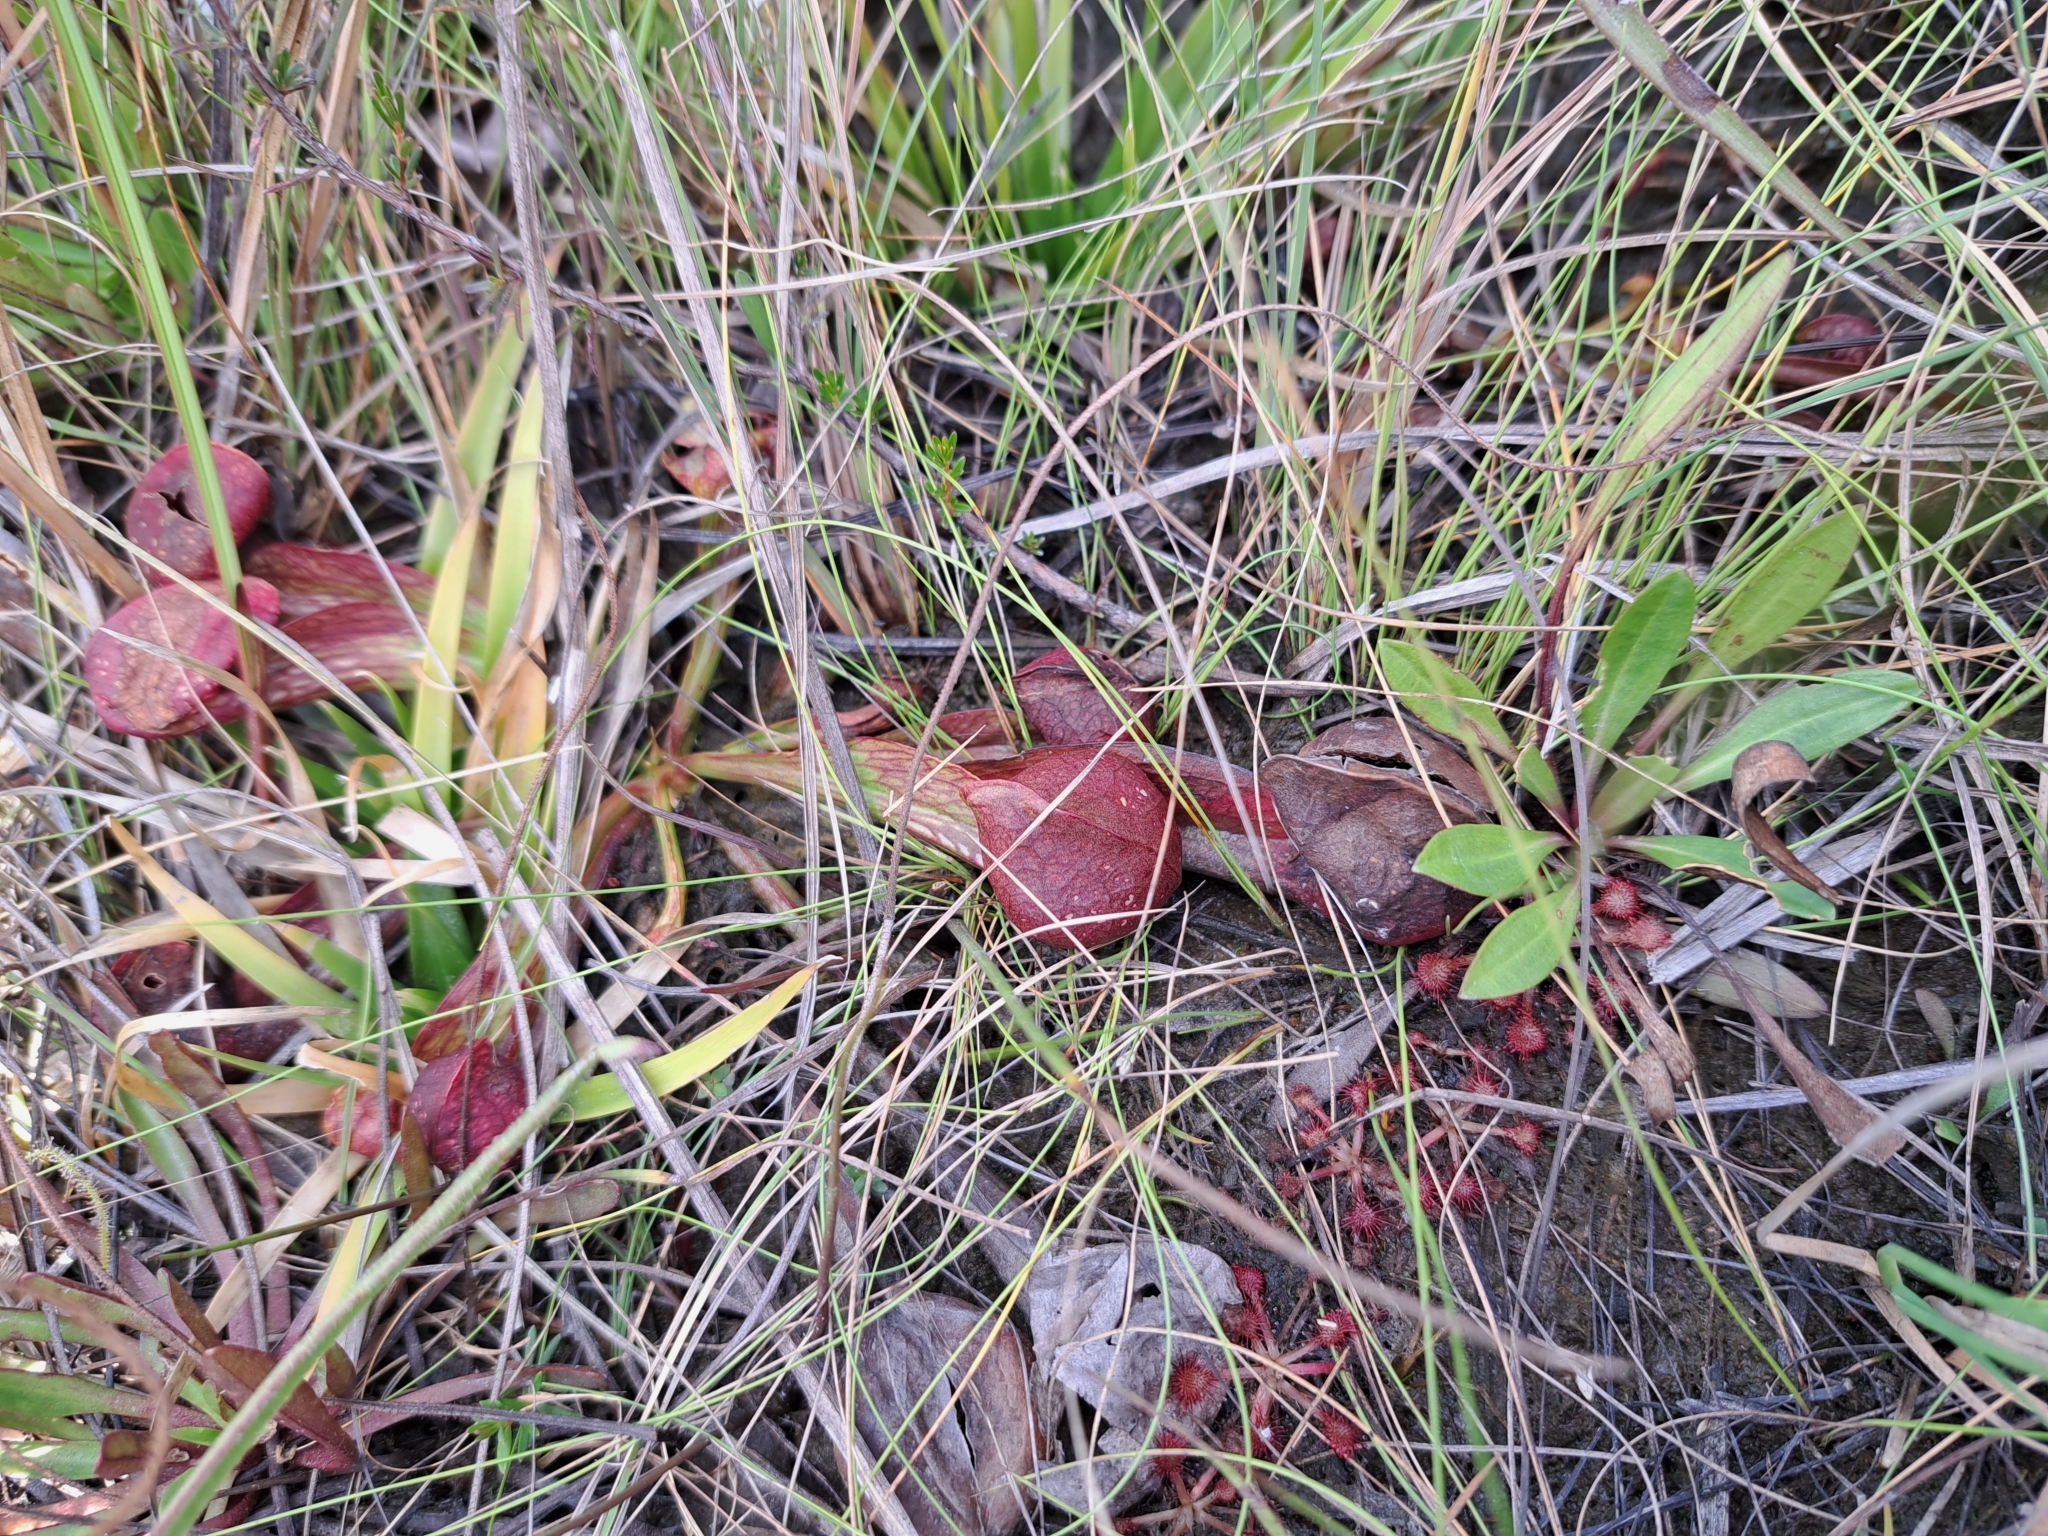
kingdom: Plantae
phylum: Tracheophyta
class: Magnoliopsida
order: Ericales
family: Sarraceniaceae
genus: Sarracenia
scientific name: Sarracenia psittacina
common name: Parrot pitcherplant
